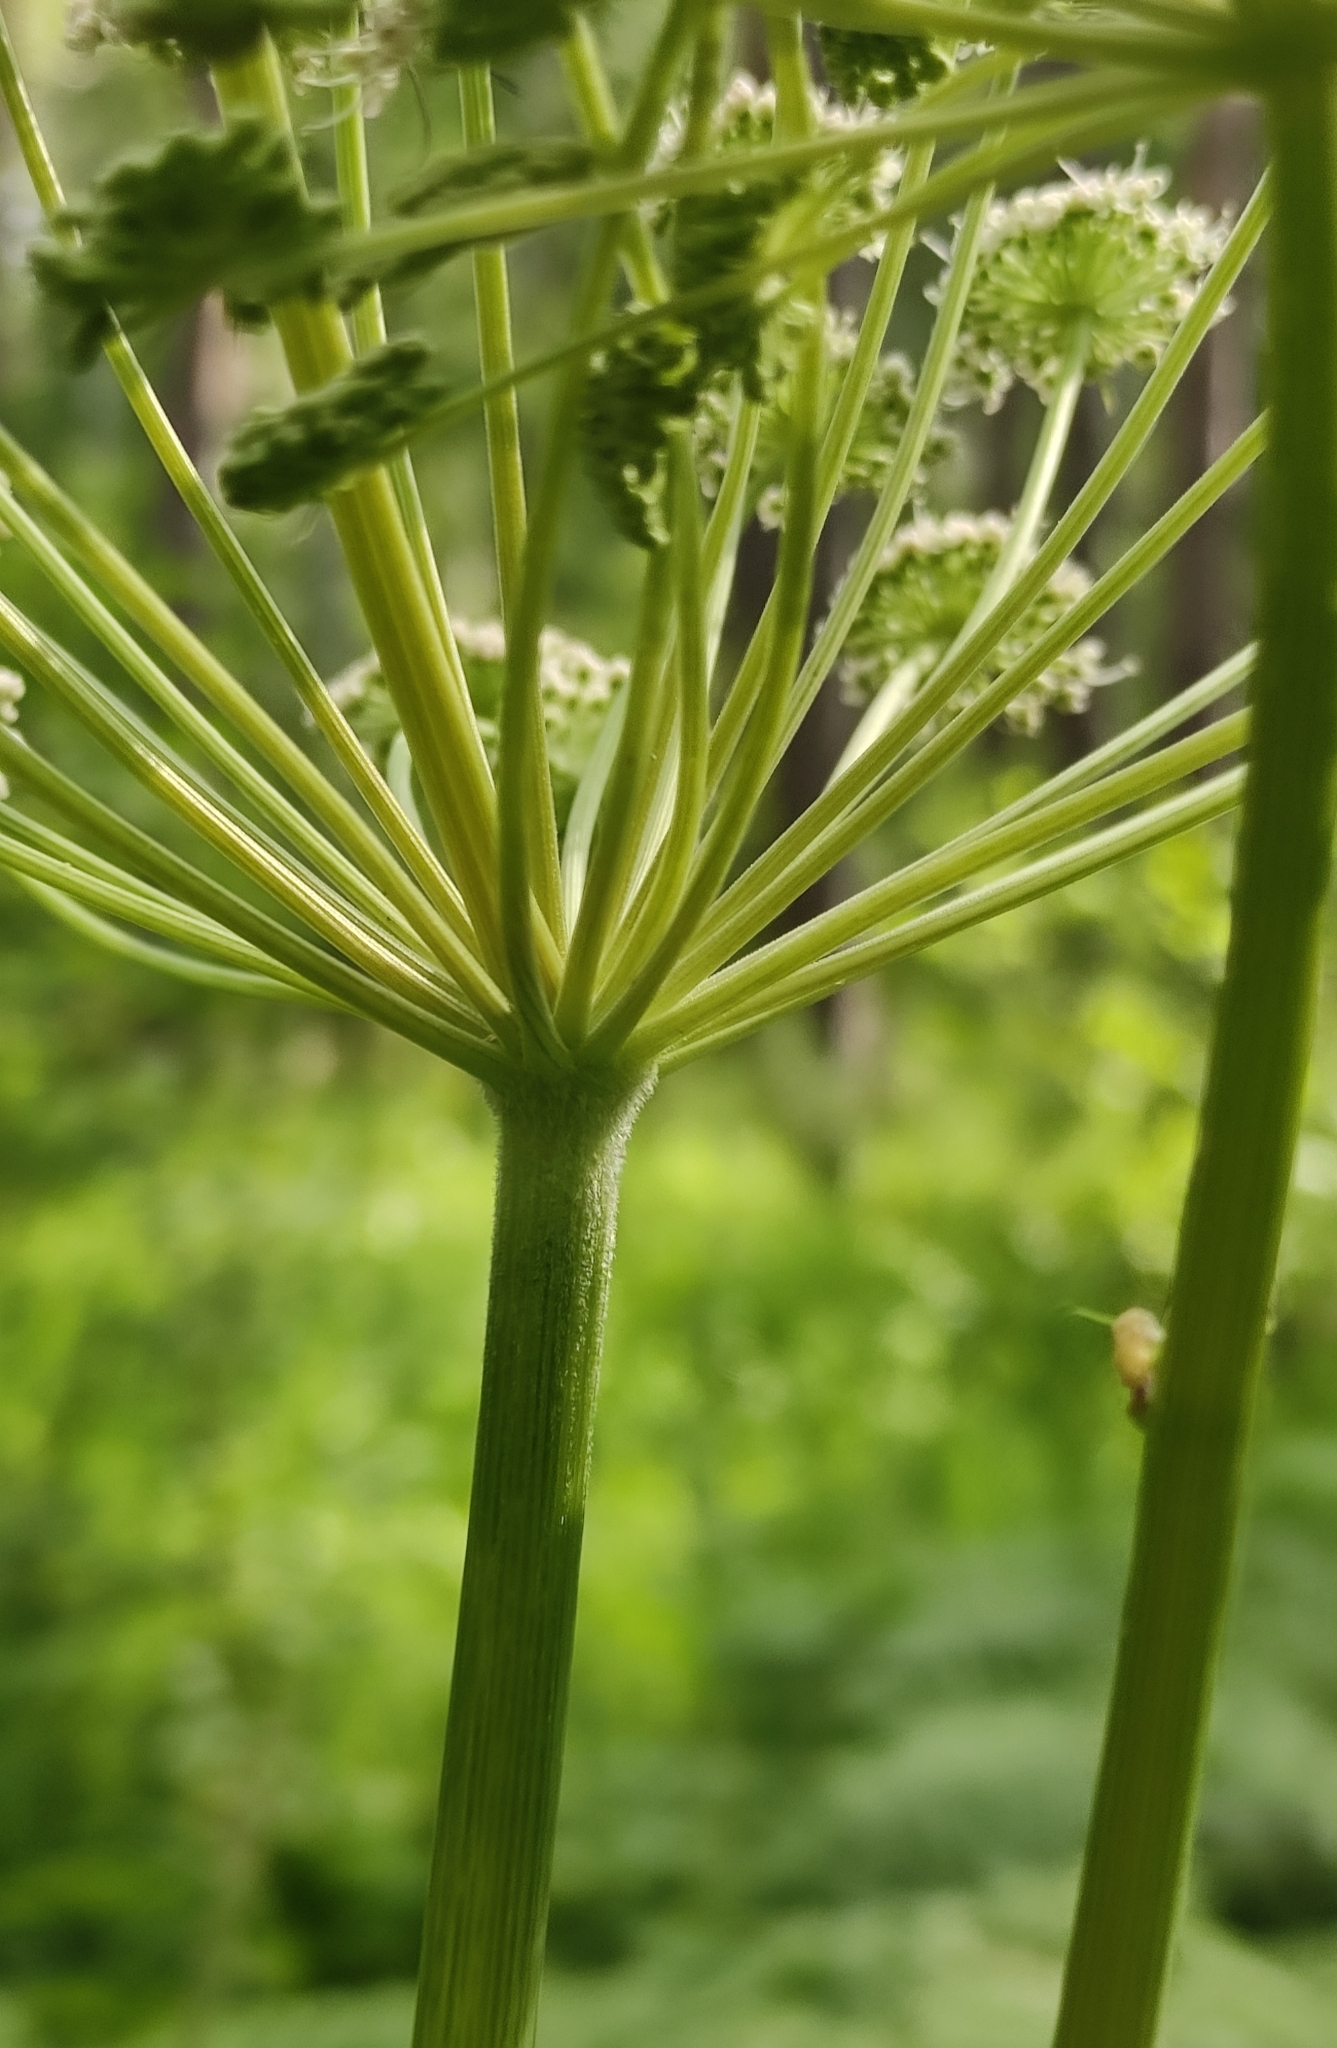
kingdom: Plantae
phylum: Tracheophyta
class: Magnoliopsida
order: Apiales
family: Apiaceae
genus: Angelica
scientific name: Angelica sylvestris
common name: Wild angelica
